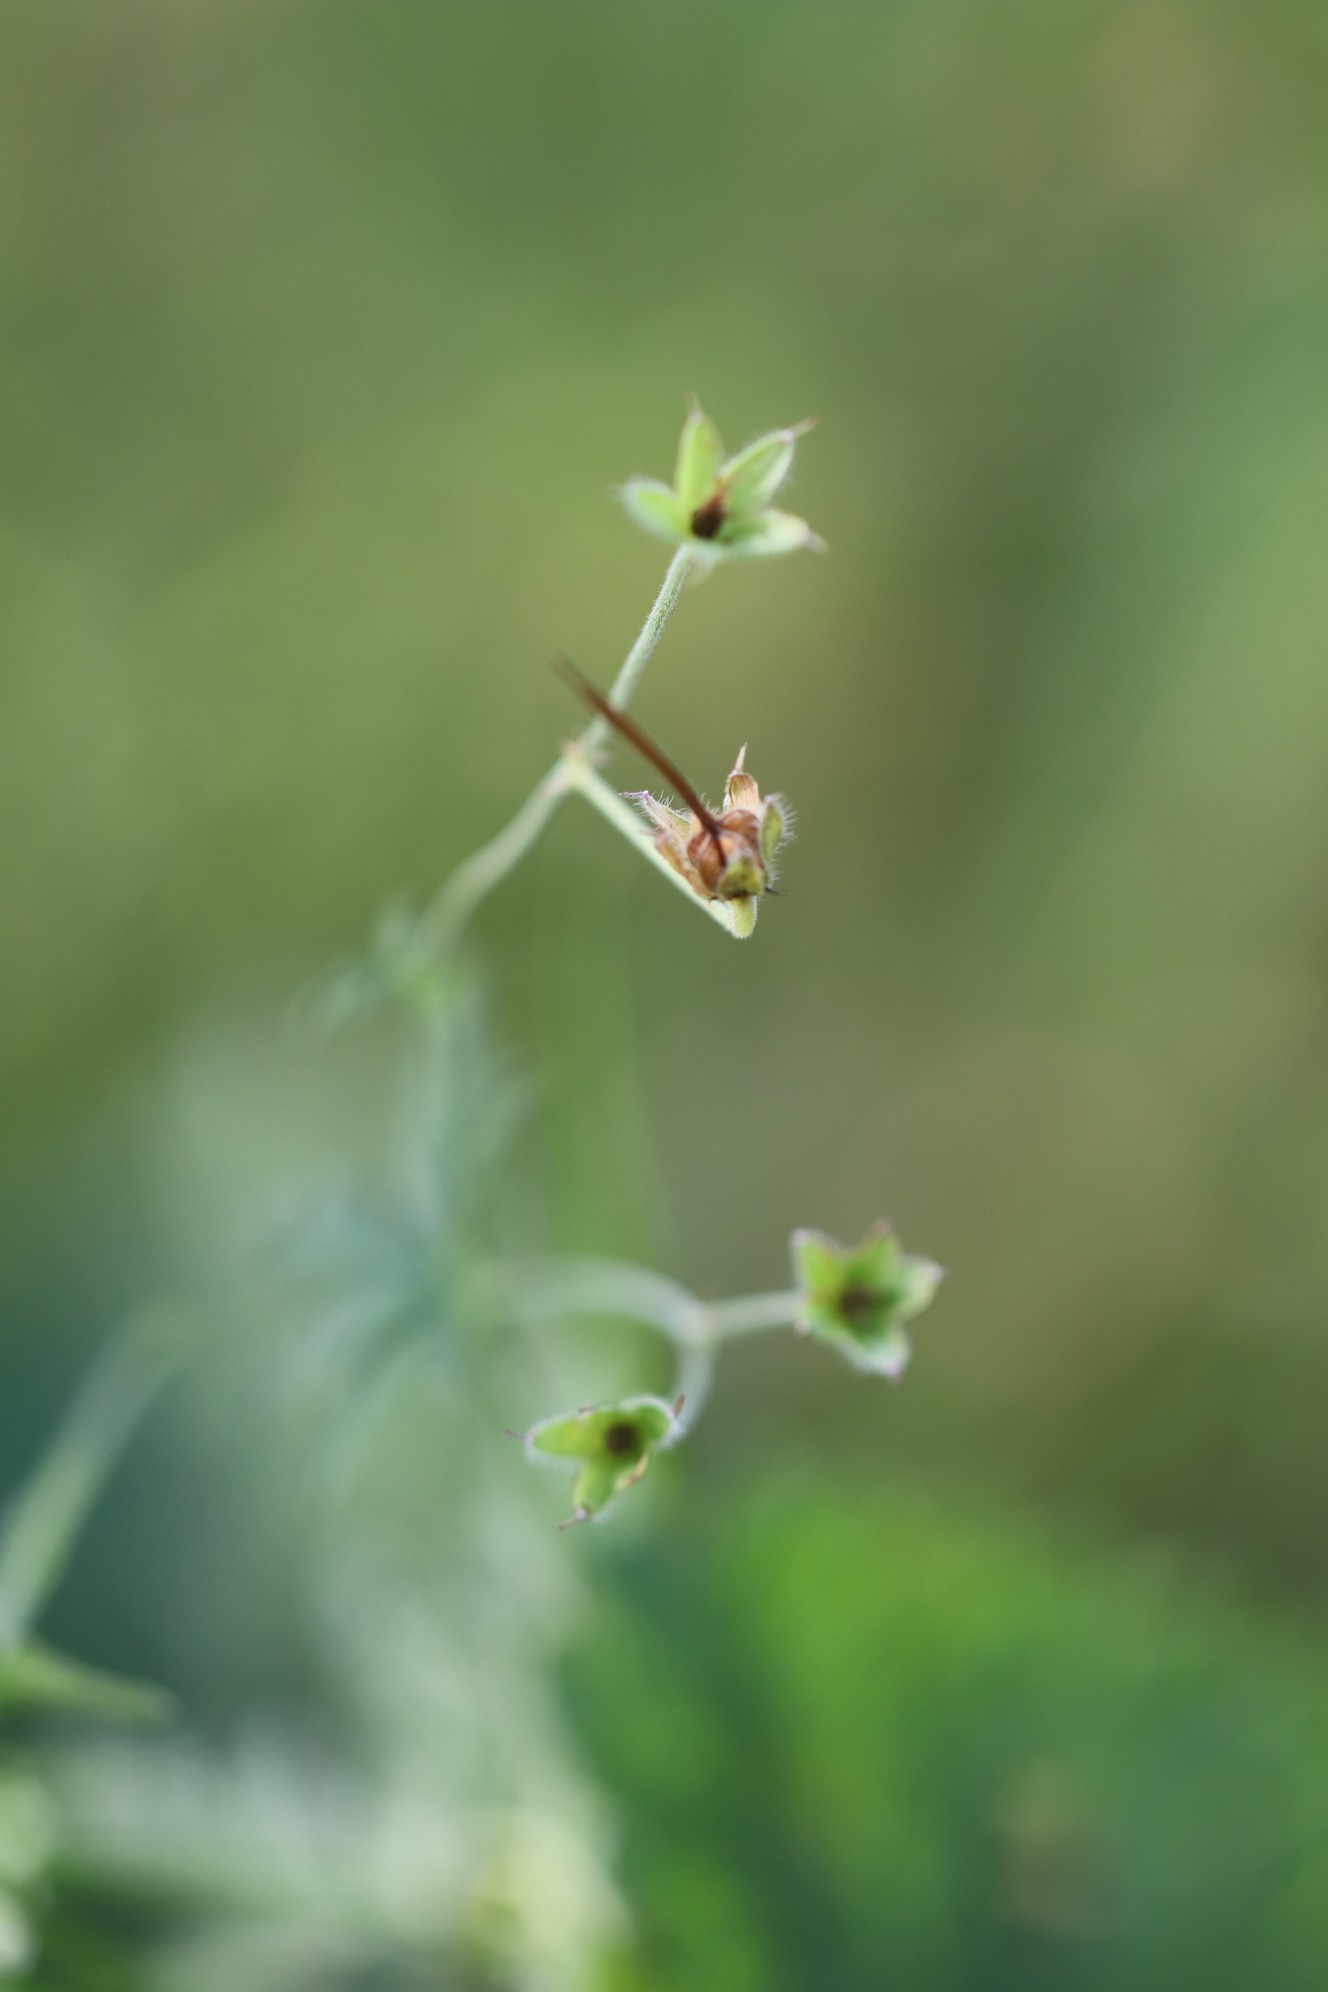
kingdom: Plantae
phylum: Tracheophyta
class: Magnoliopsida
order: Geraniales
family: Geraniaceae
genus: Geranium
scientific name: Geranium sibiricum
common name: Siberian crane's-bill
